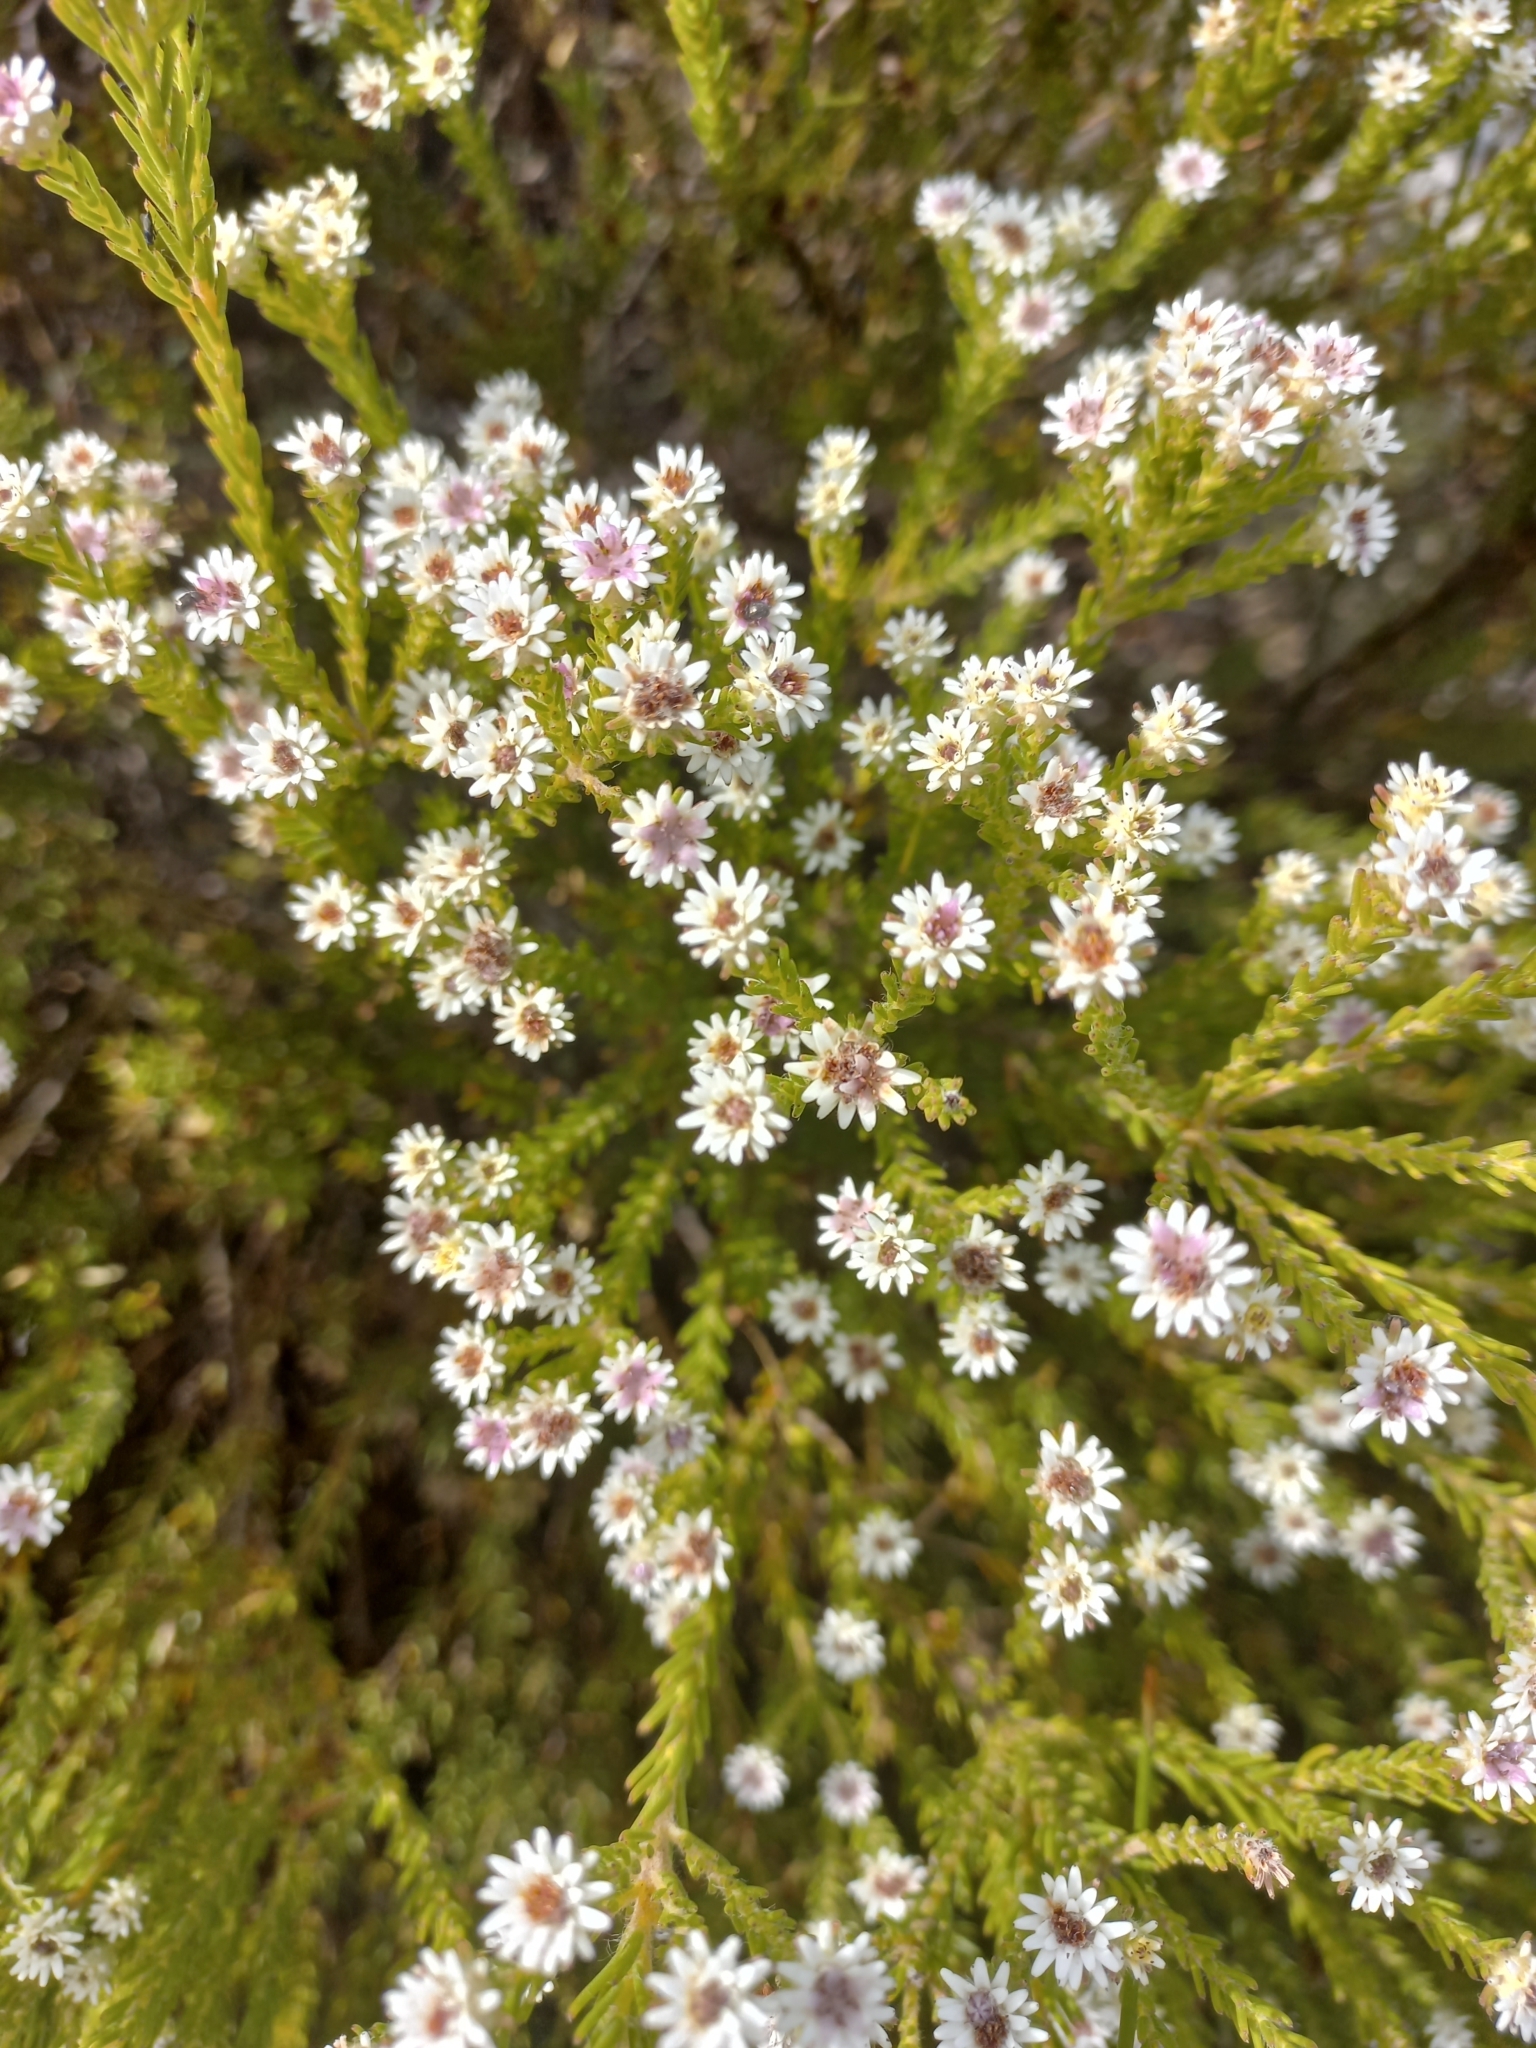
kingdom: Plantae
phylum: Tracheophyta
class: Magnoliopsida
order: Bruniales
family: Bruniaceae
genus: Staavia
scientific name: Staavia radiata
